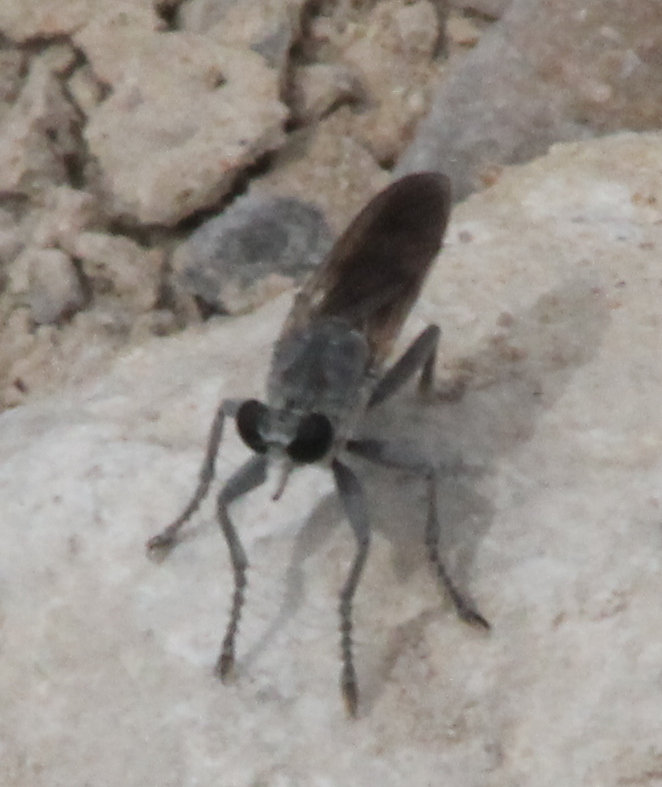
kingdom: Animalia
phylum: Arthropoda
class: Insecta
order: Diptera
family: Asilidae
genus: Stichopogon
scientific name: Stichopogon trifasciatus
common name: Three-banded robber fly
